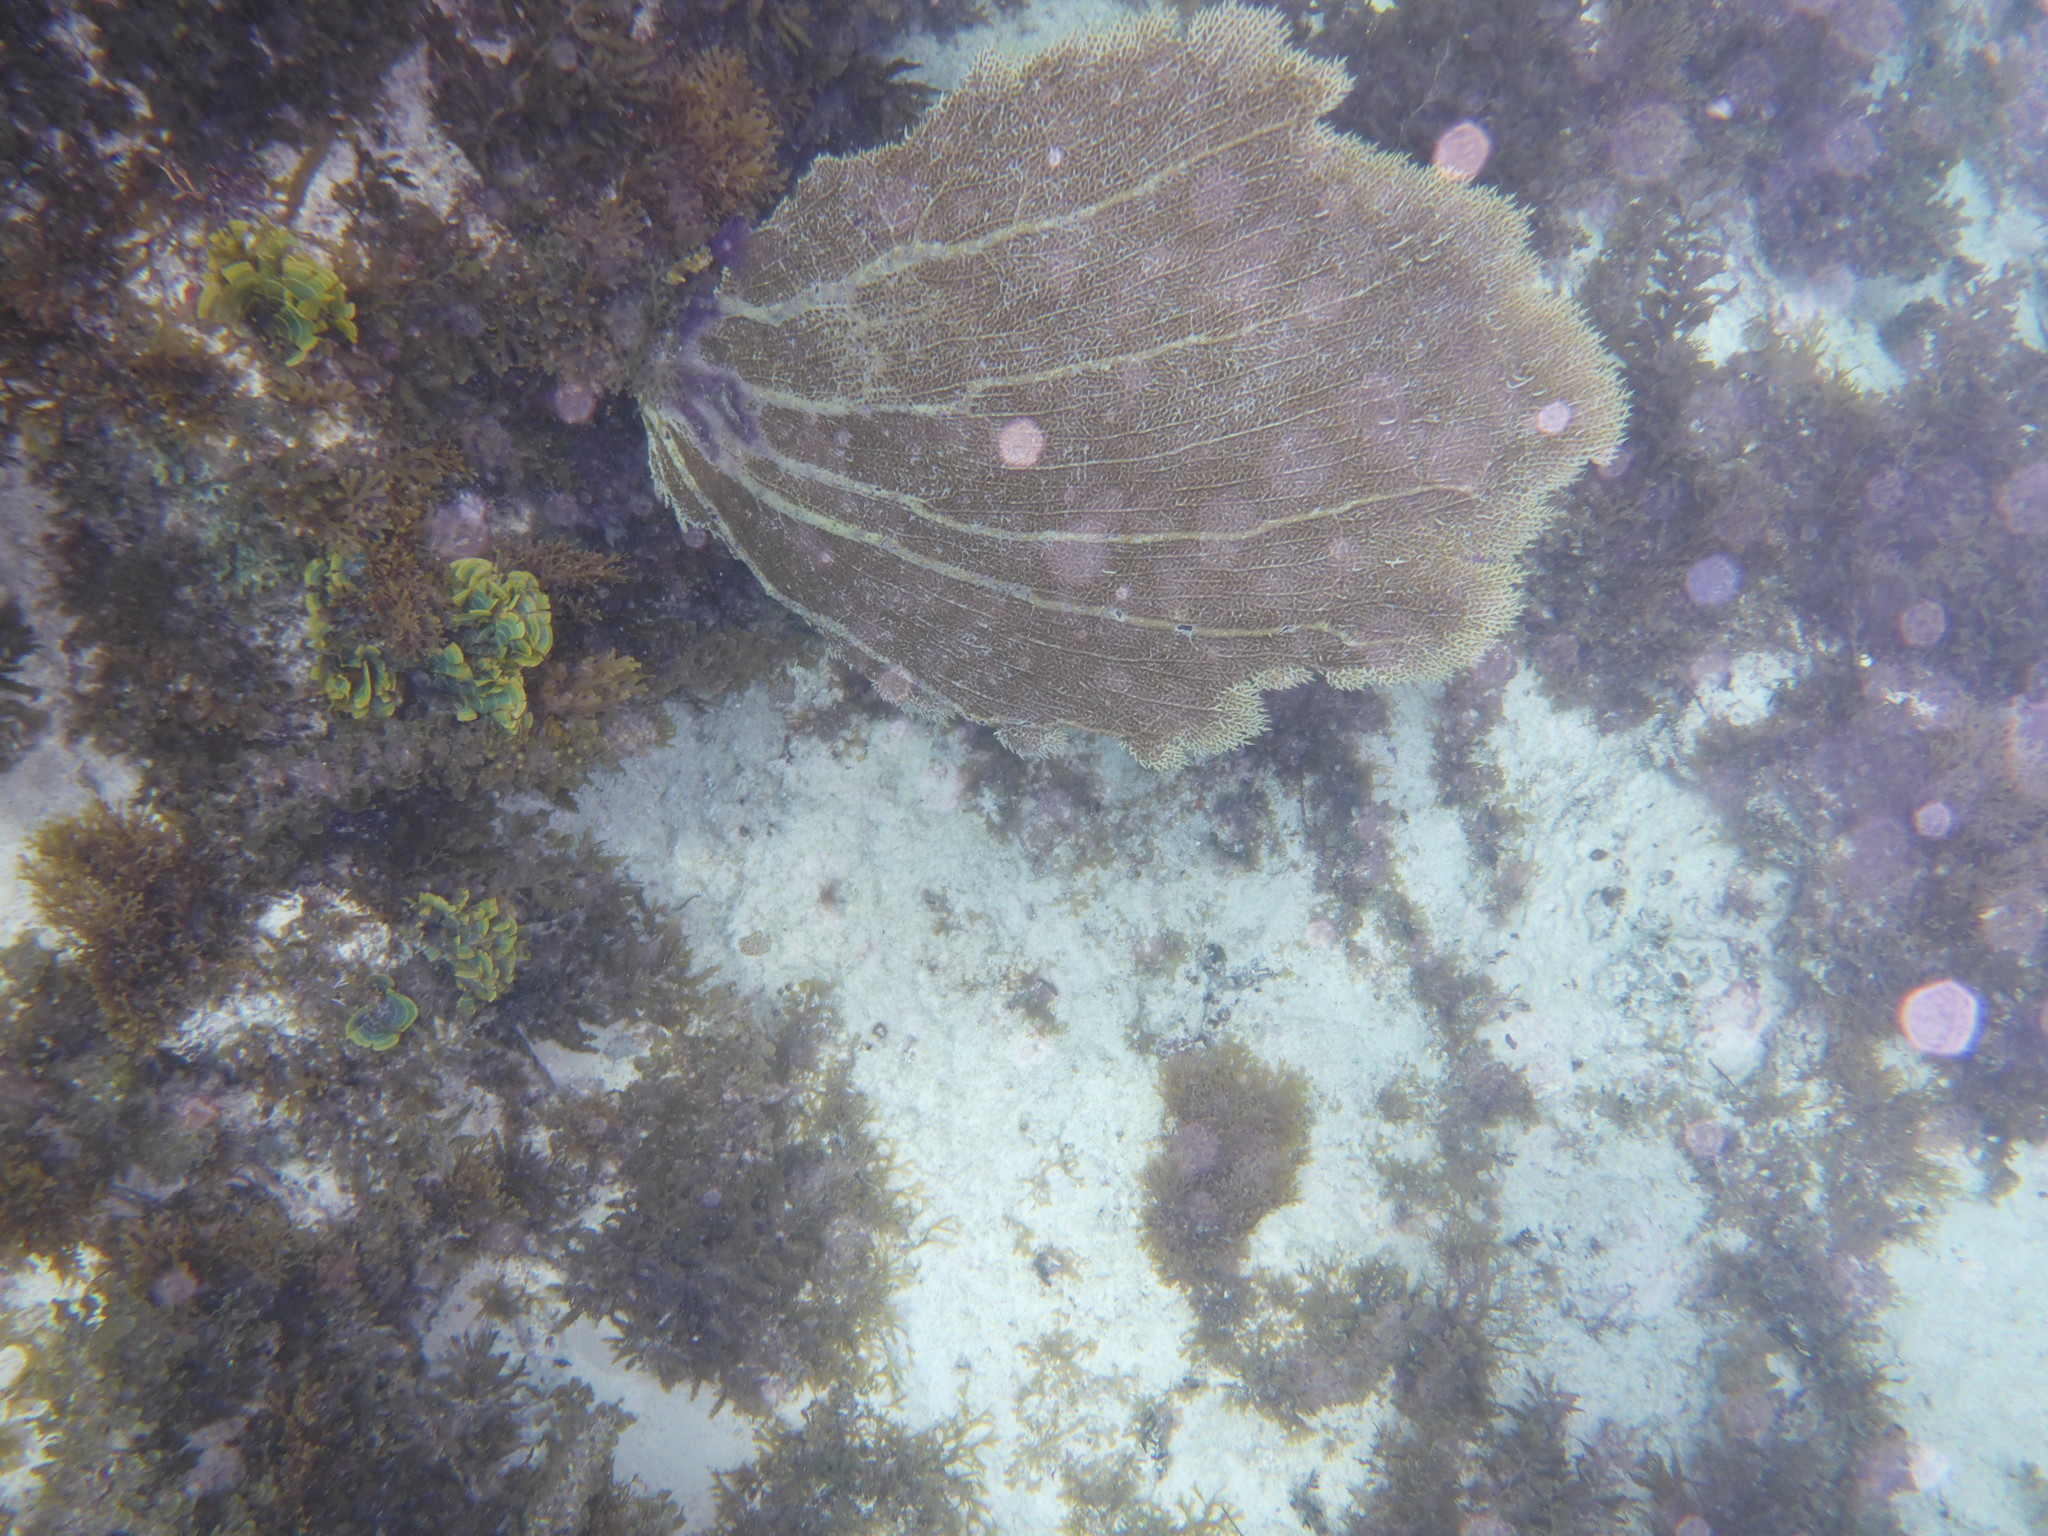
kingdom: Animalia
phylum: Cnidaria
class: Anthozoa
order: Malacalcyonacea
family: Gorgoniidae
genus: Gorgonia
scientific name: Gorgonia ventalina
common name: Common sea fan
